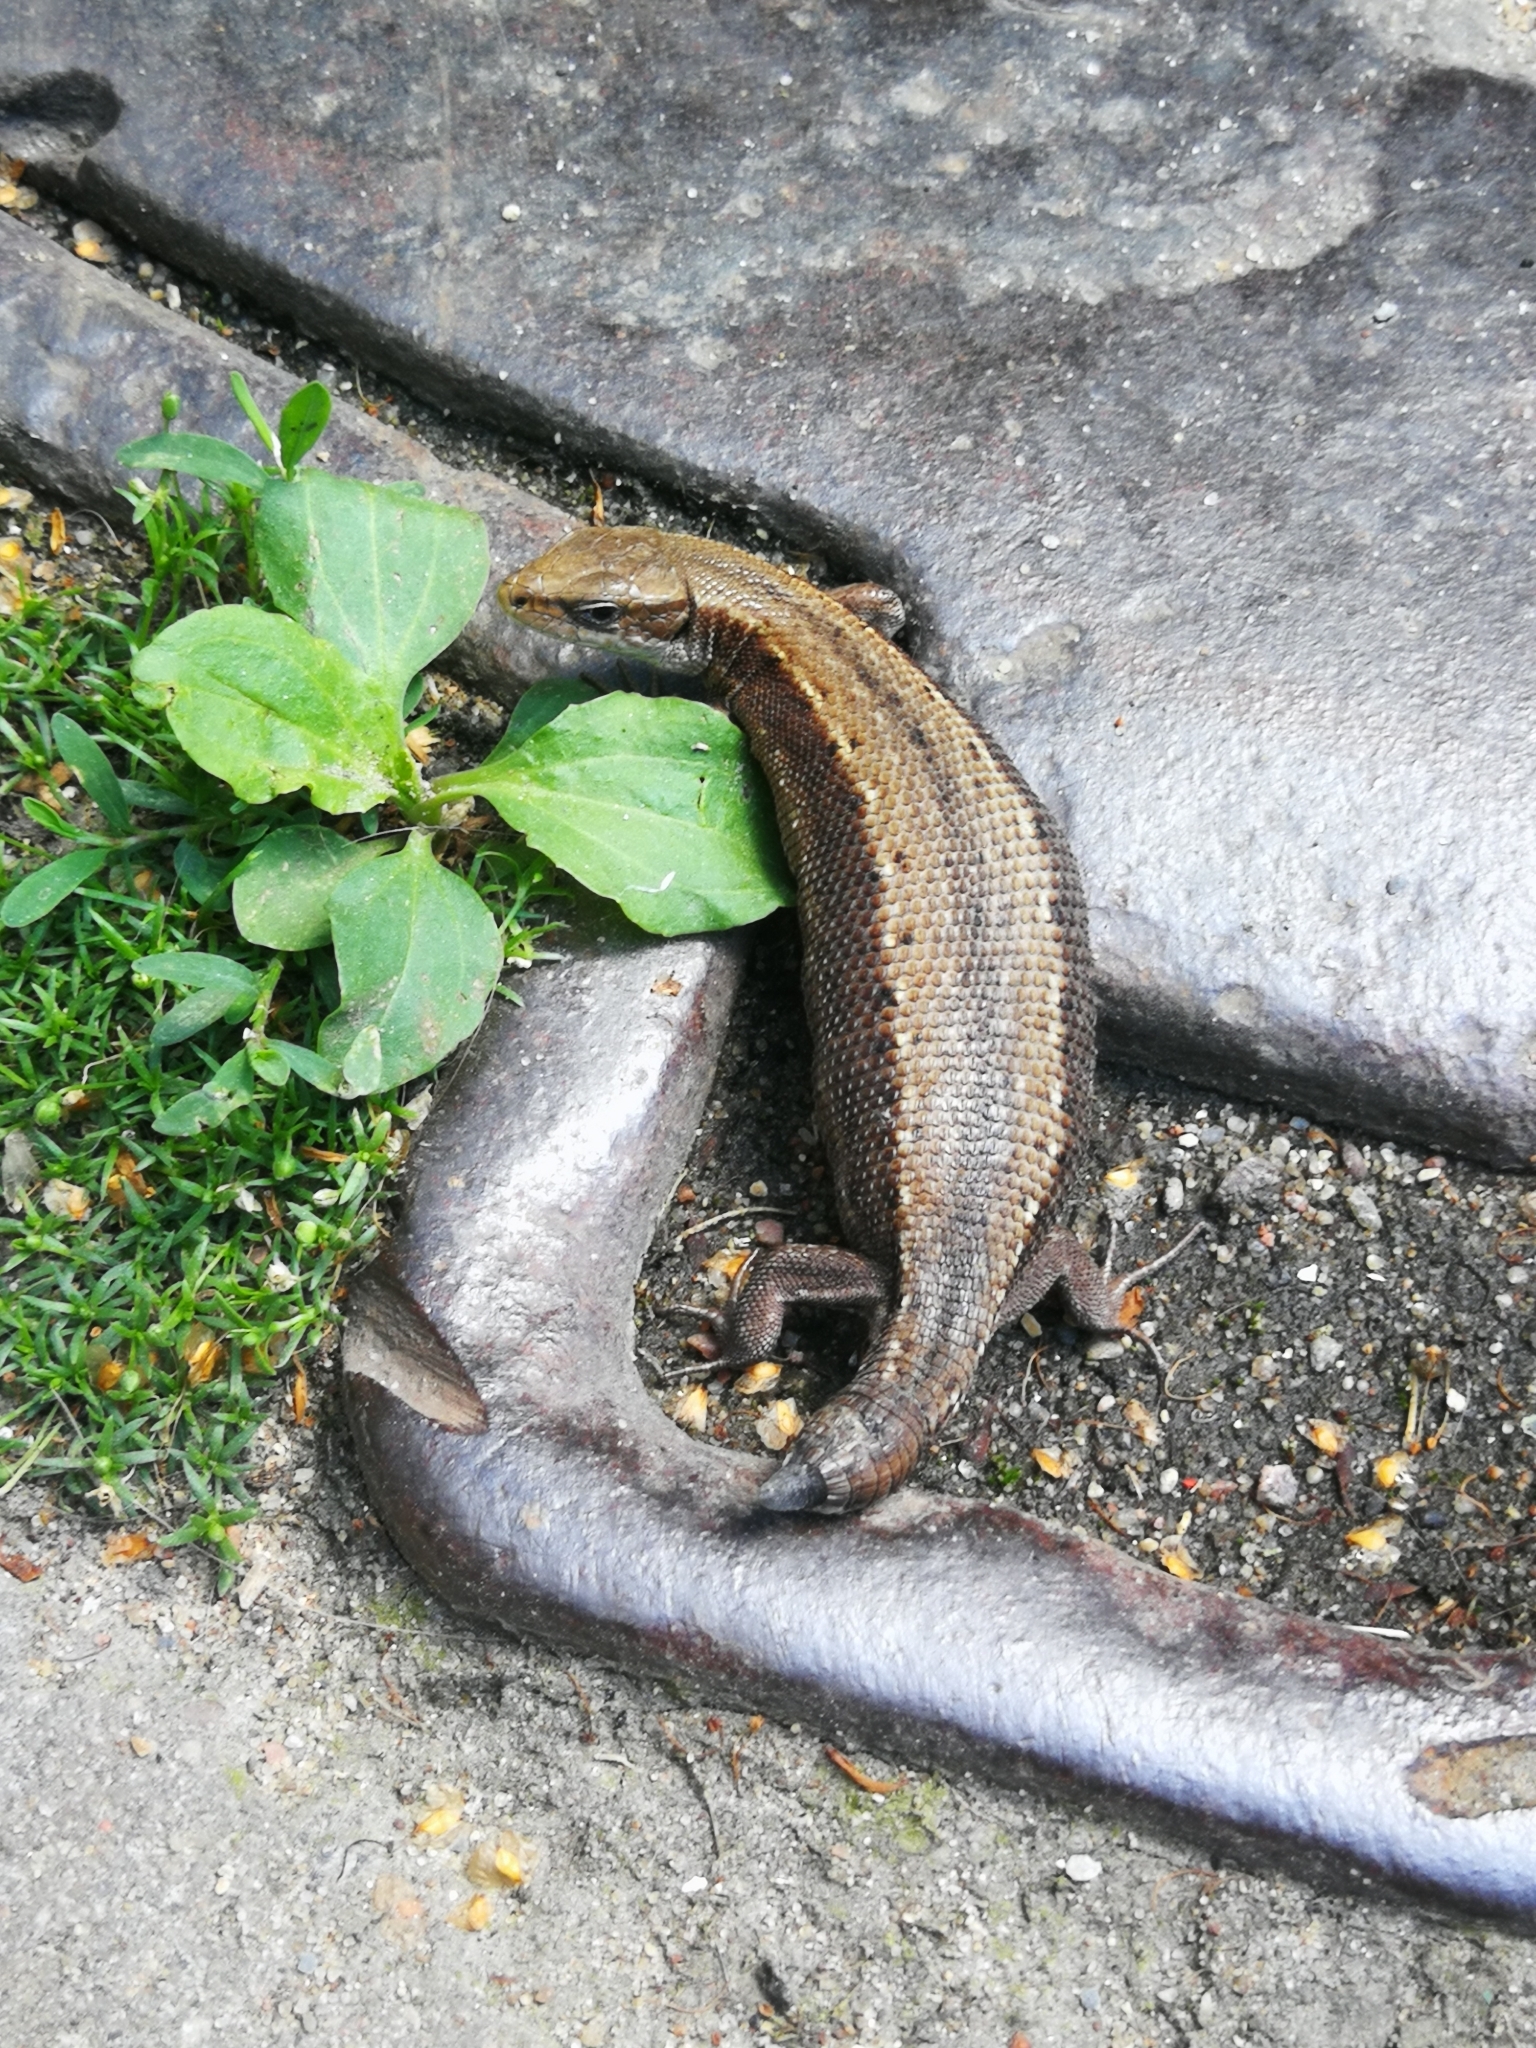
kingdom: Animalia
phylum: Chordata
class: Squamata
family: Lacertidae
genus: Zootoca
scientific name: Zootoca vivipara
